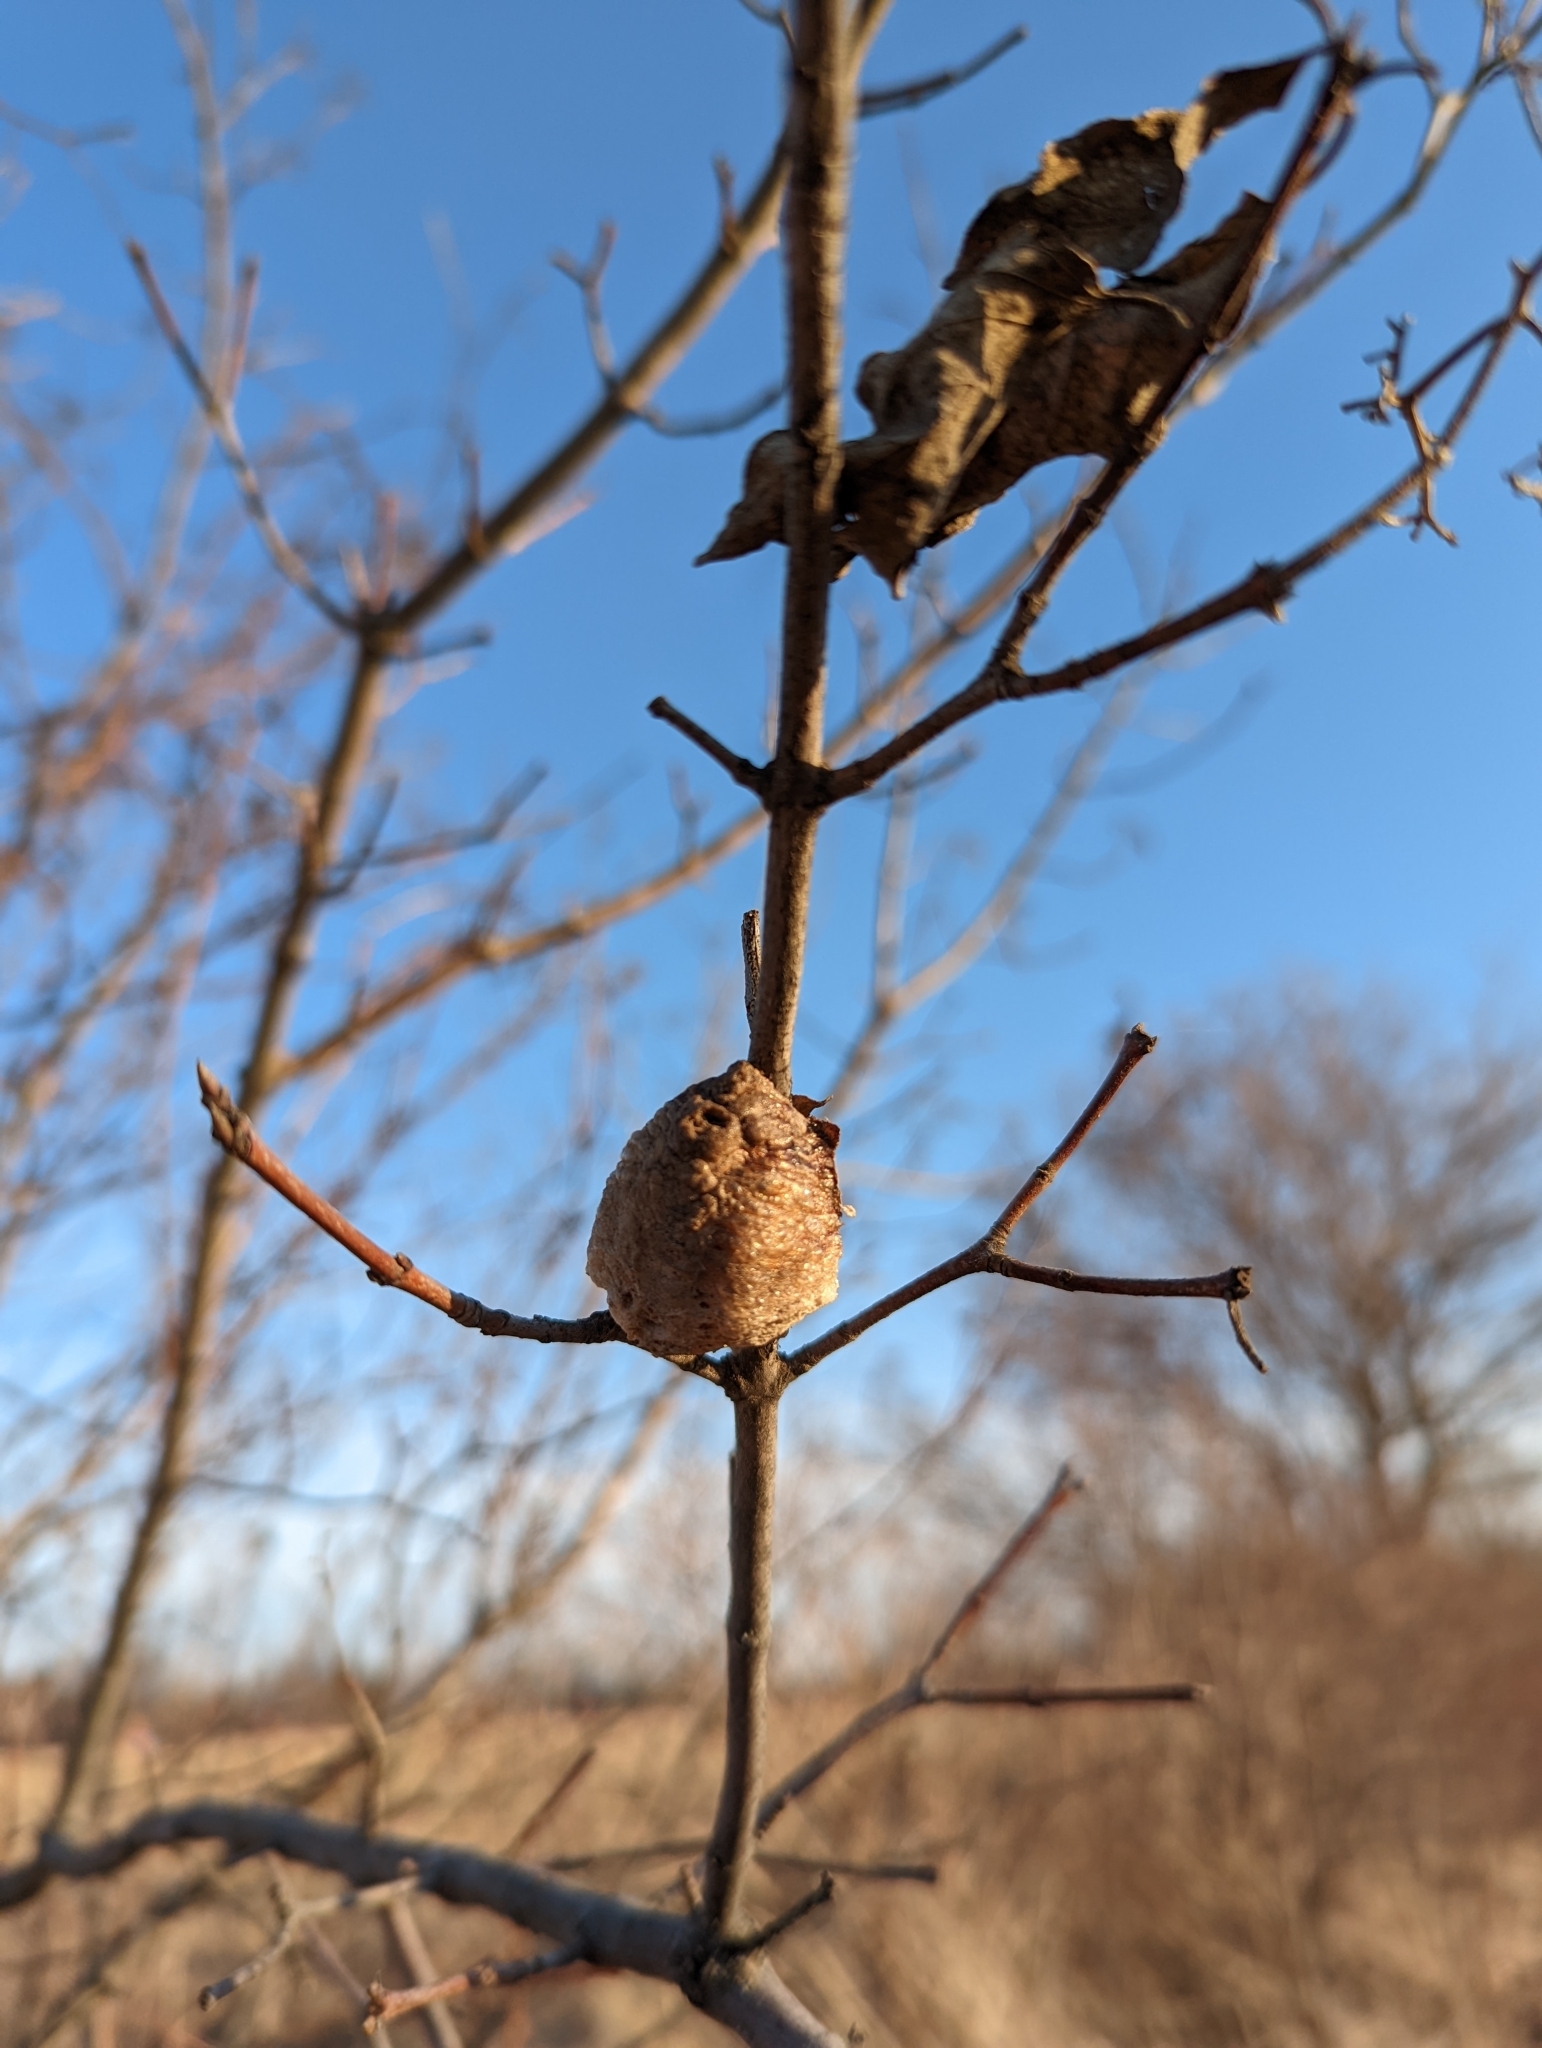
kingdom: Animalia
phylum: Arthropoda
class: Insecta
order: Mantodea
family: Mantidae
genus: Tenodera
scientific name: Tenodera sinensis
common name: Chinese mantis
